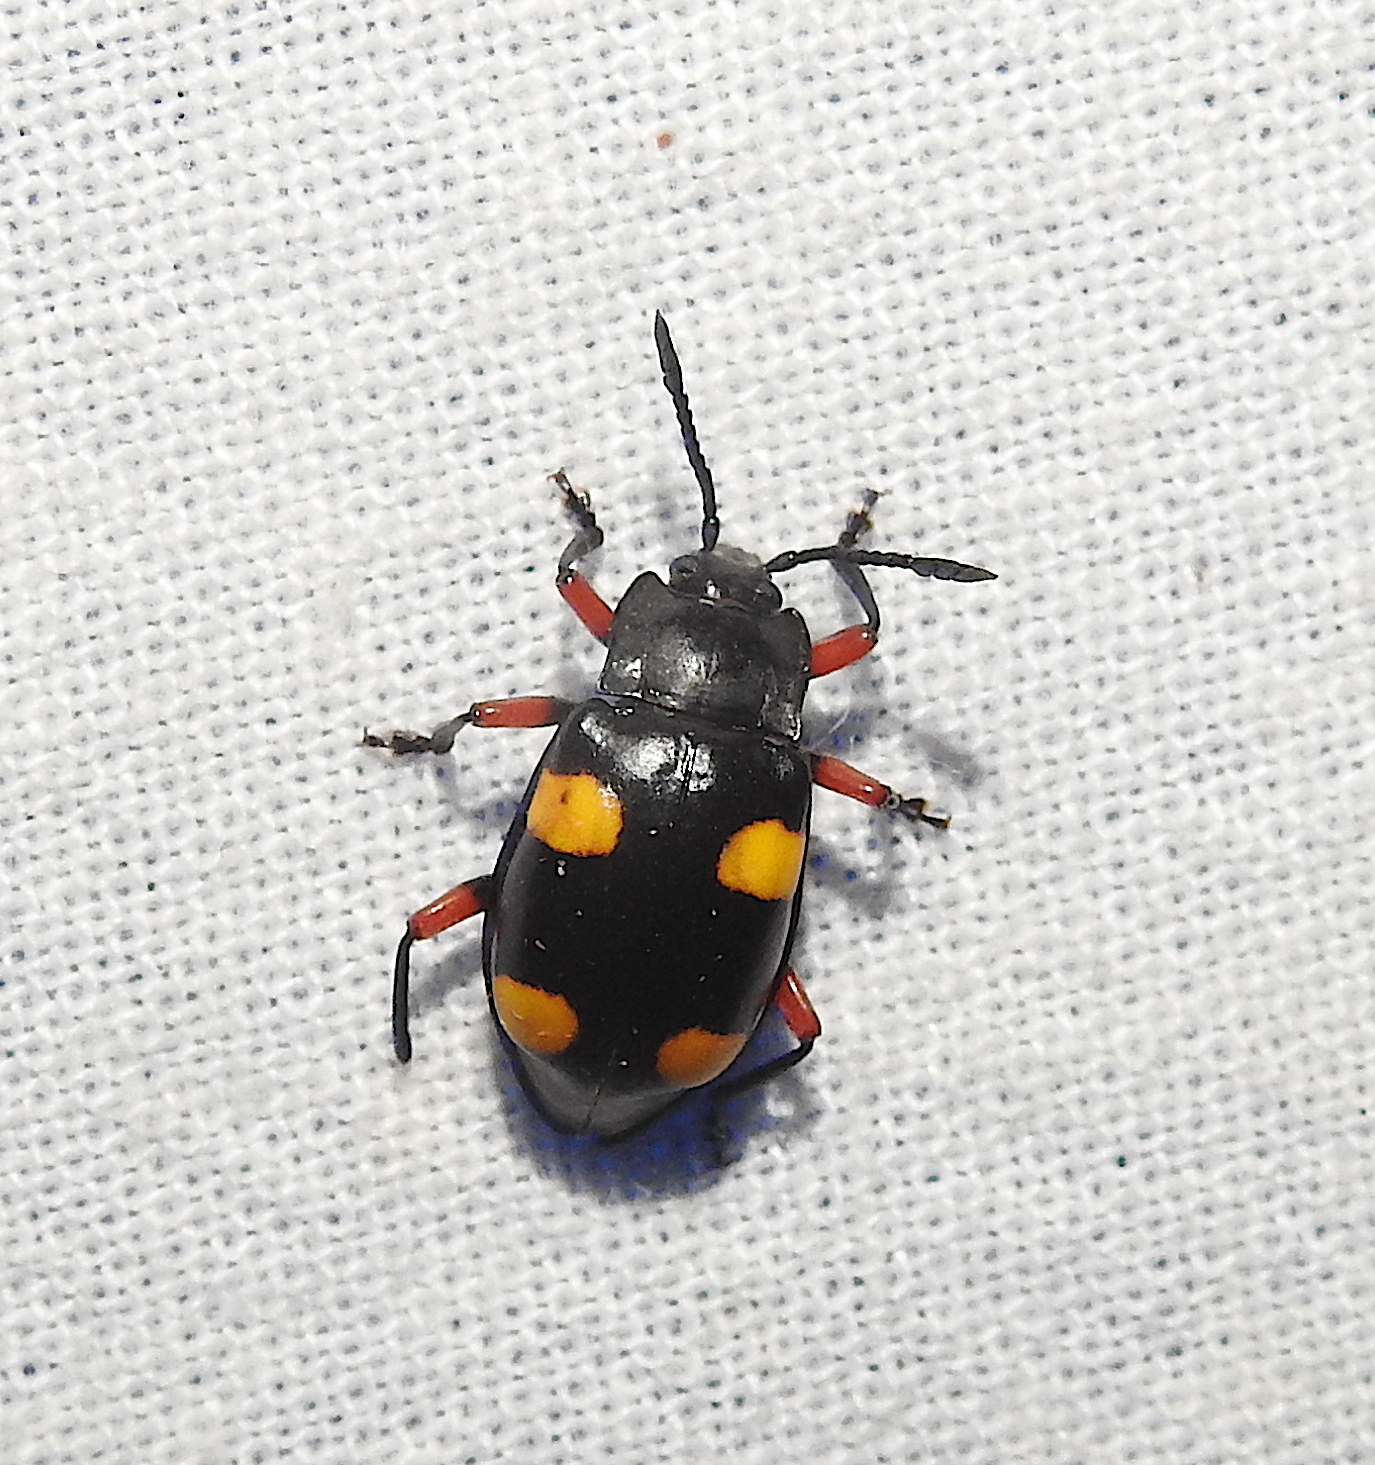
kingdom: Animalia
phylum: Arthropoda
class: Insecta
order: Coleoptera
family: Endomychidae
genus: Eumorphus
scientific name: Eumorphus quadriguttatus
